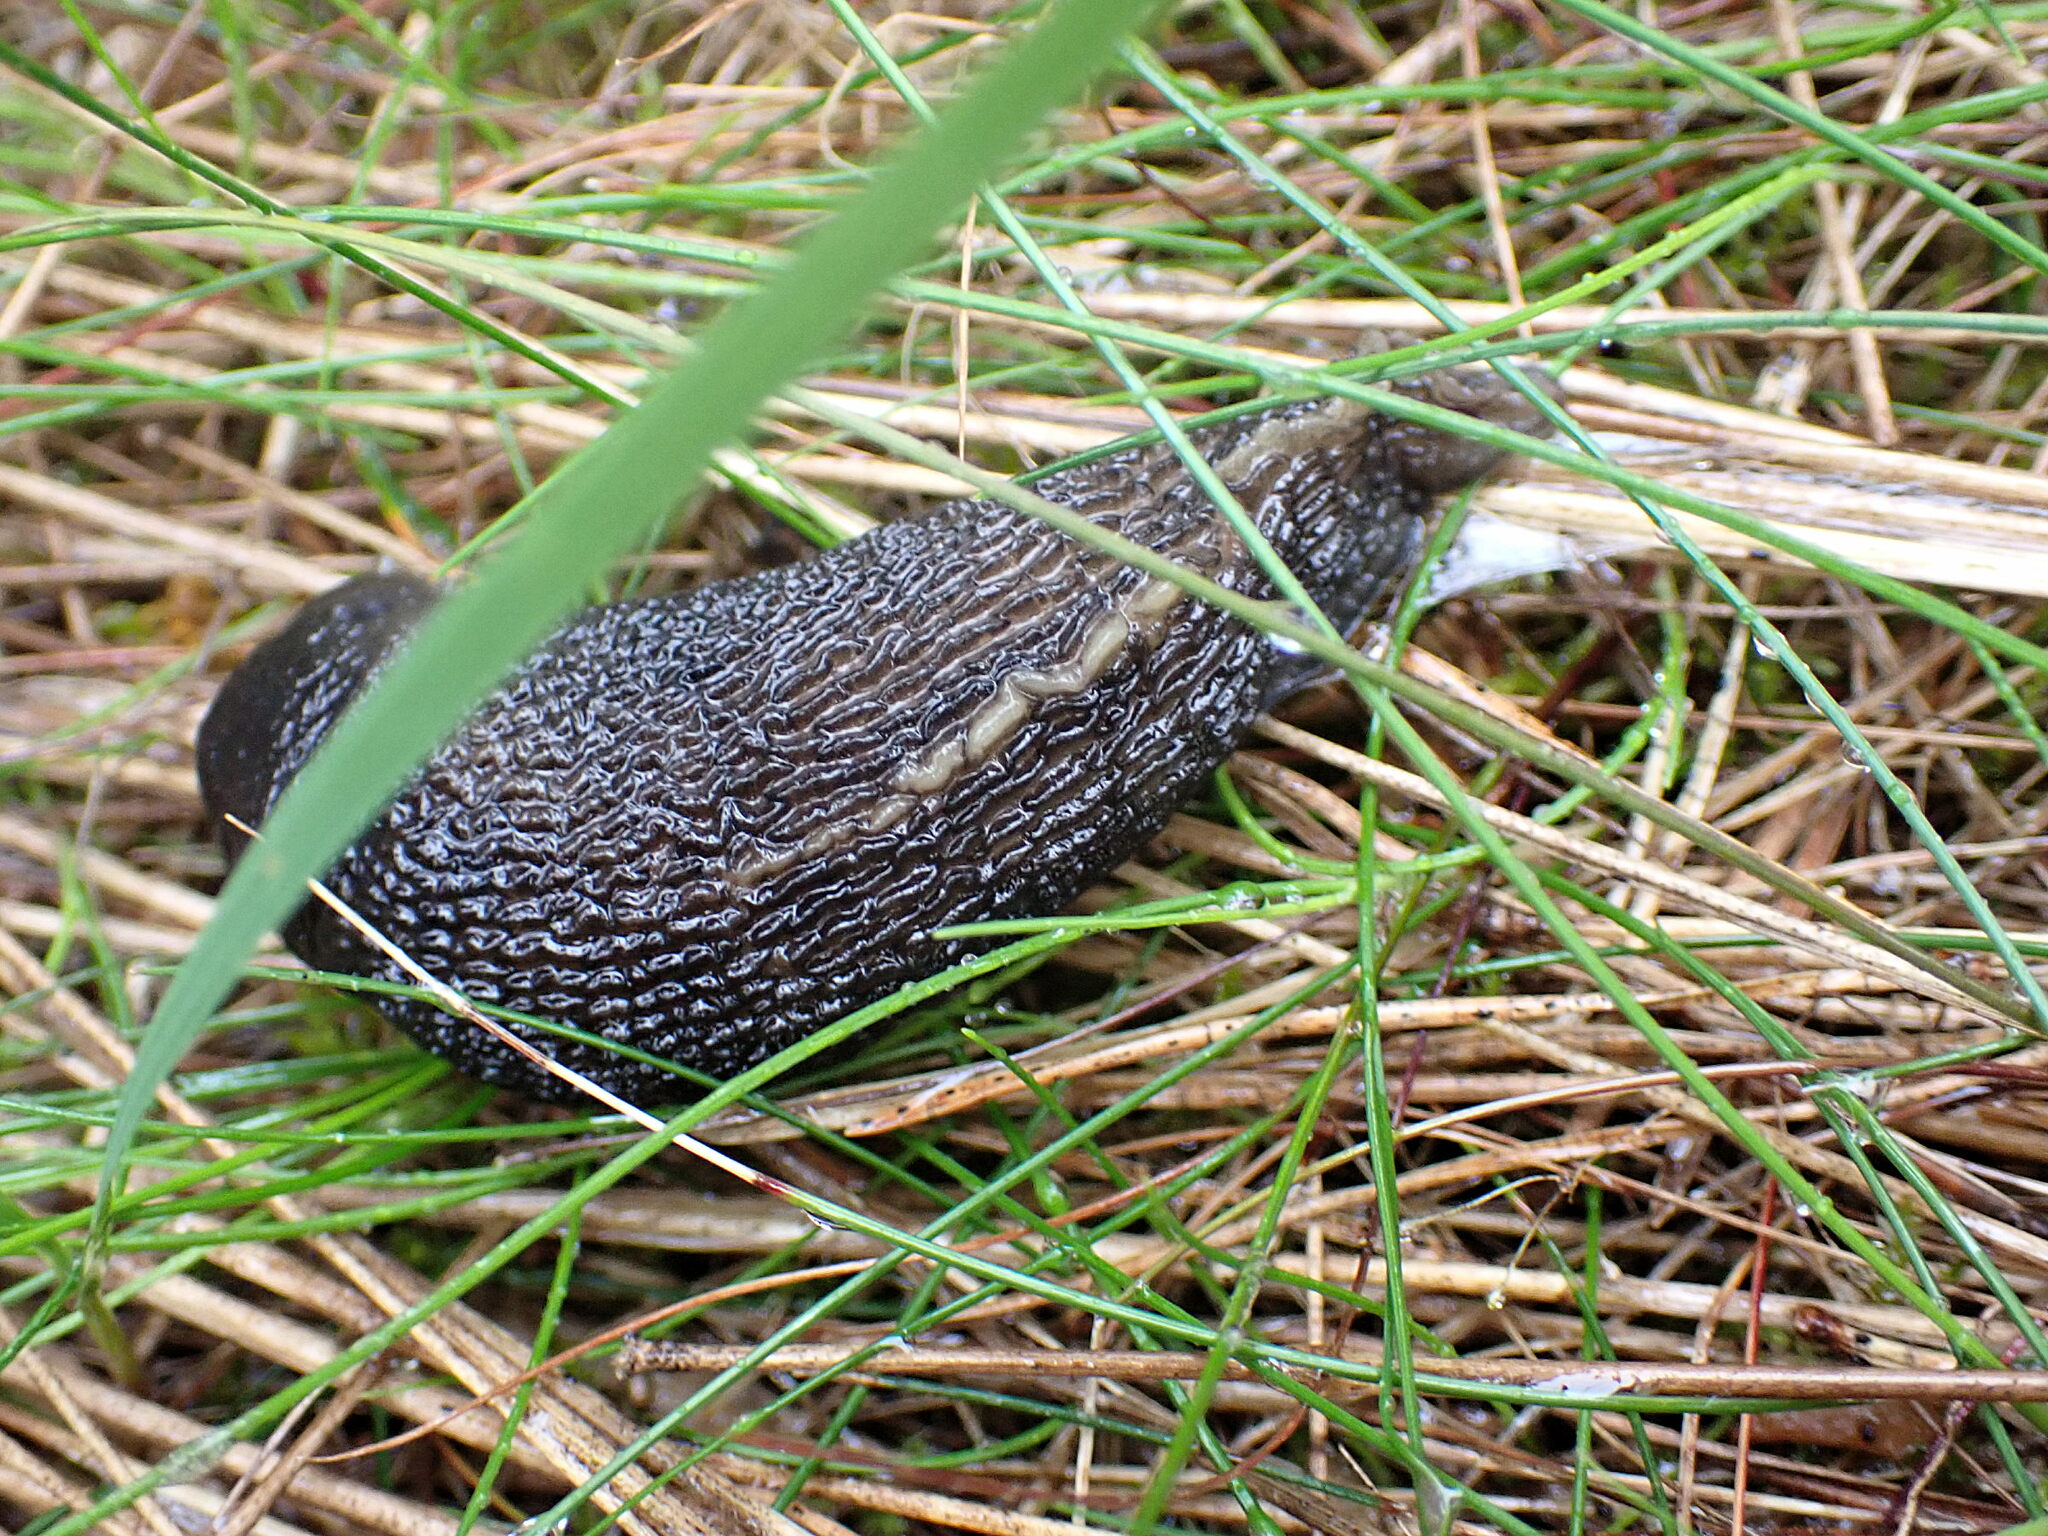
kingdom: Animalia
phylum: Mollusca
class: Gastropoda
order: Stylommatophora
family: Limacidae
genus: Limax
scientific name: Limax cinereoniger
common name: Ash-black slug
